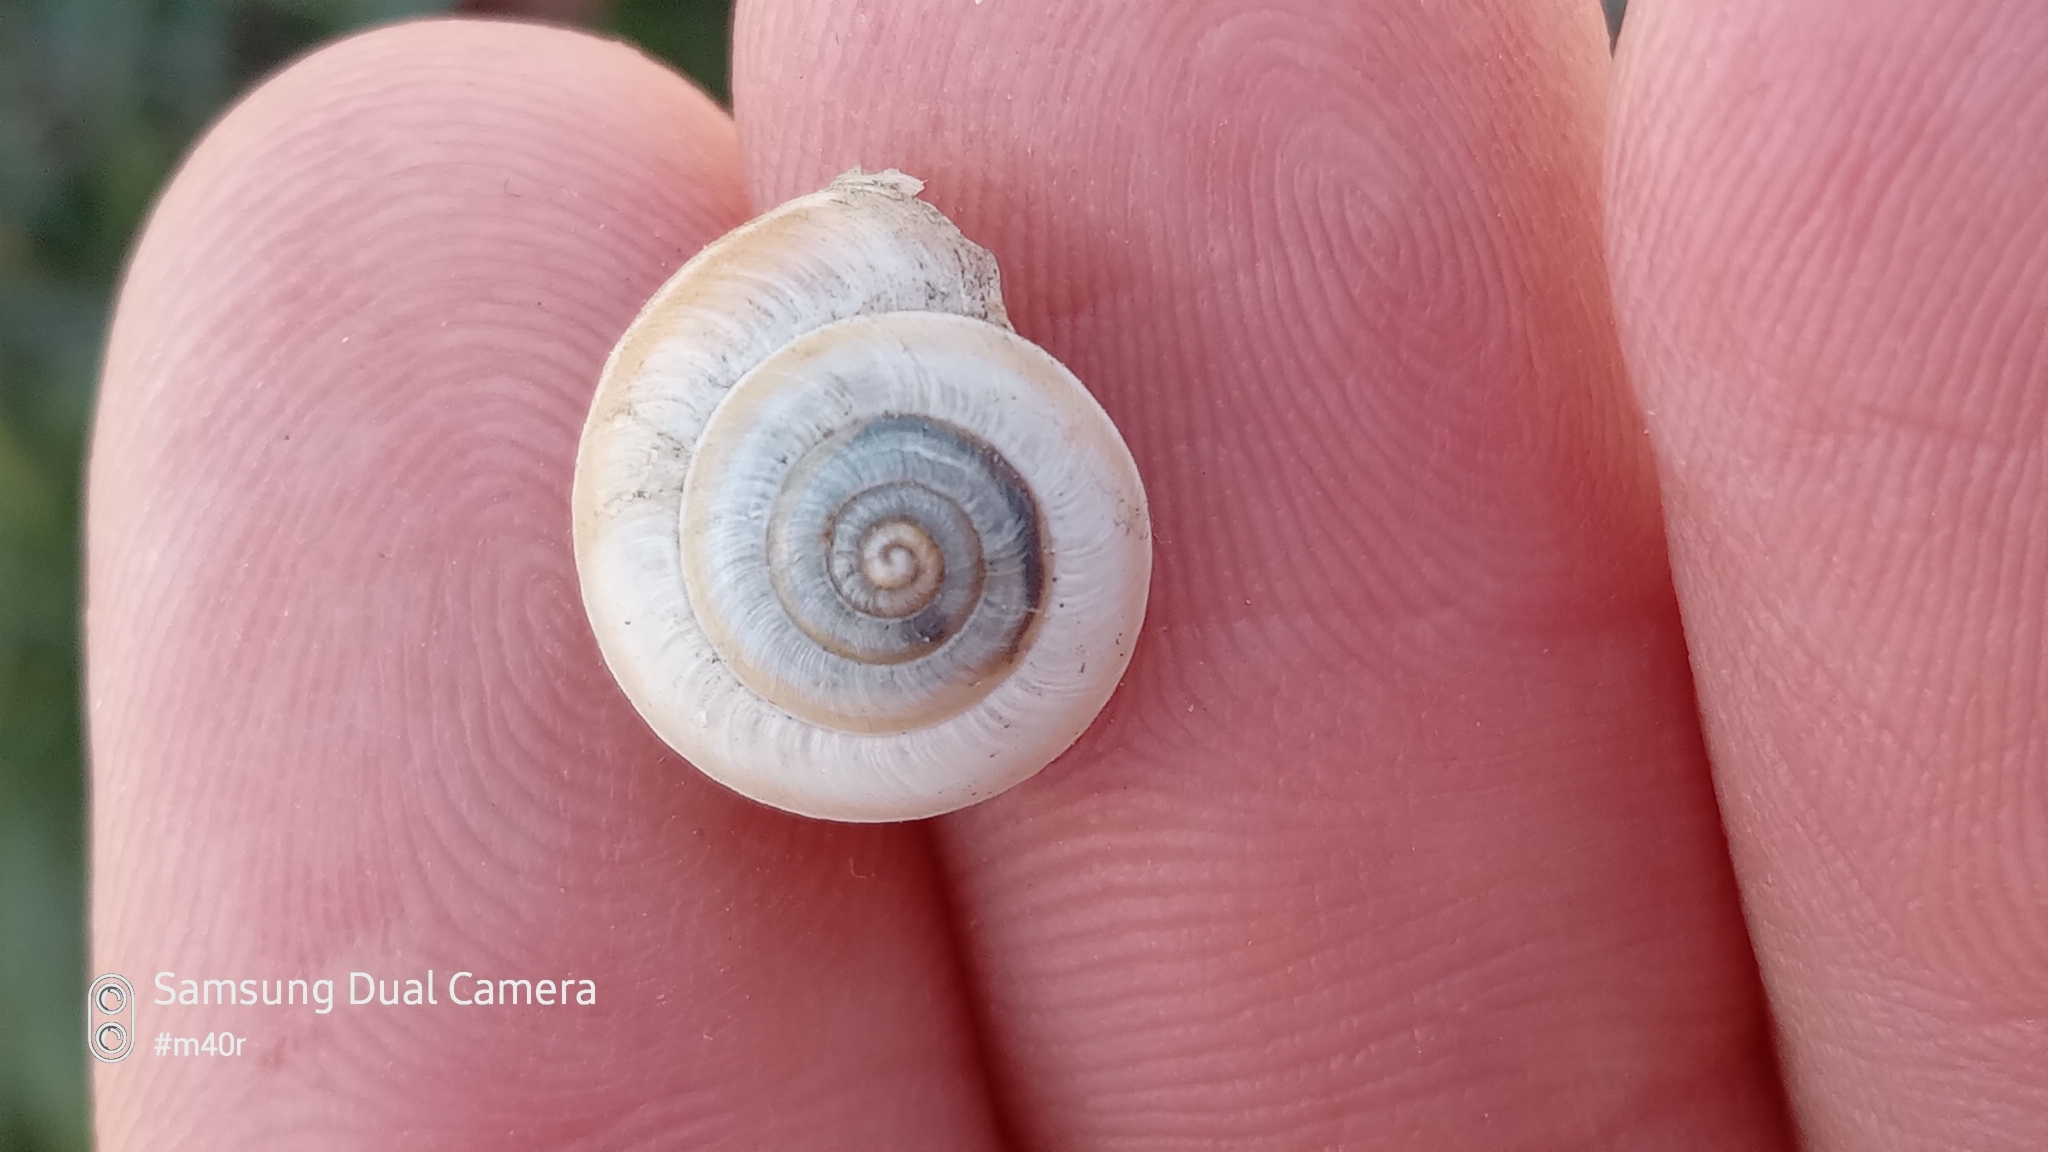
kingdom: Animalia
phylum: Mollusca
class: Gastropoda
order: Stylommatophora
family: Hygromiidae
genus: Harmozica
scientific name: Harmozica ravergiensis
